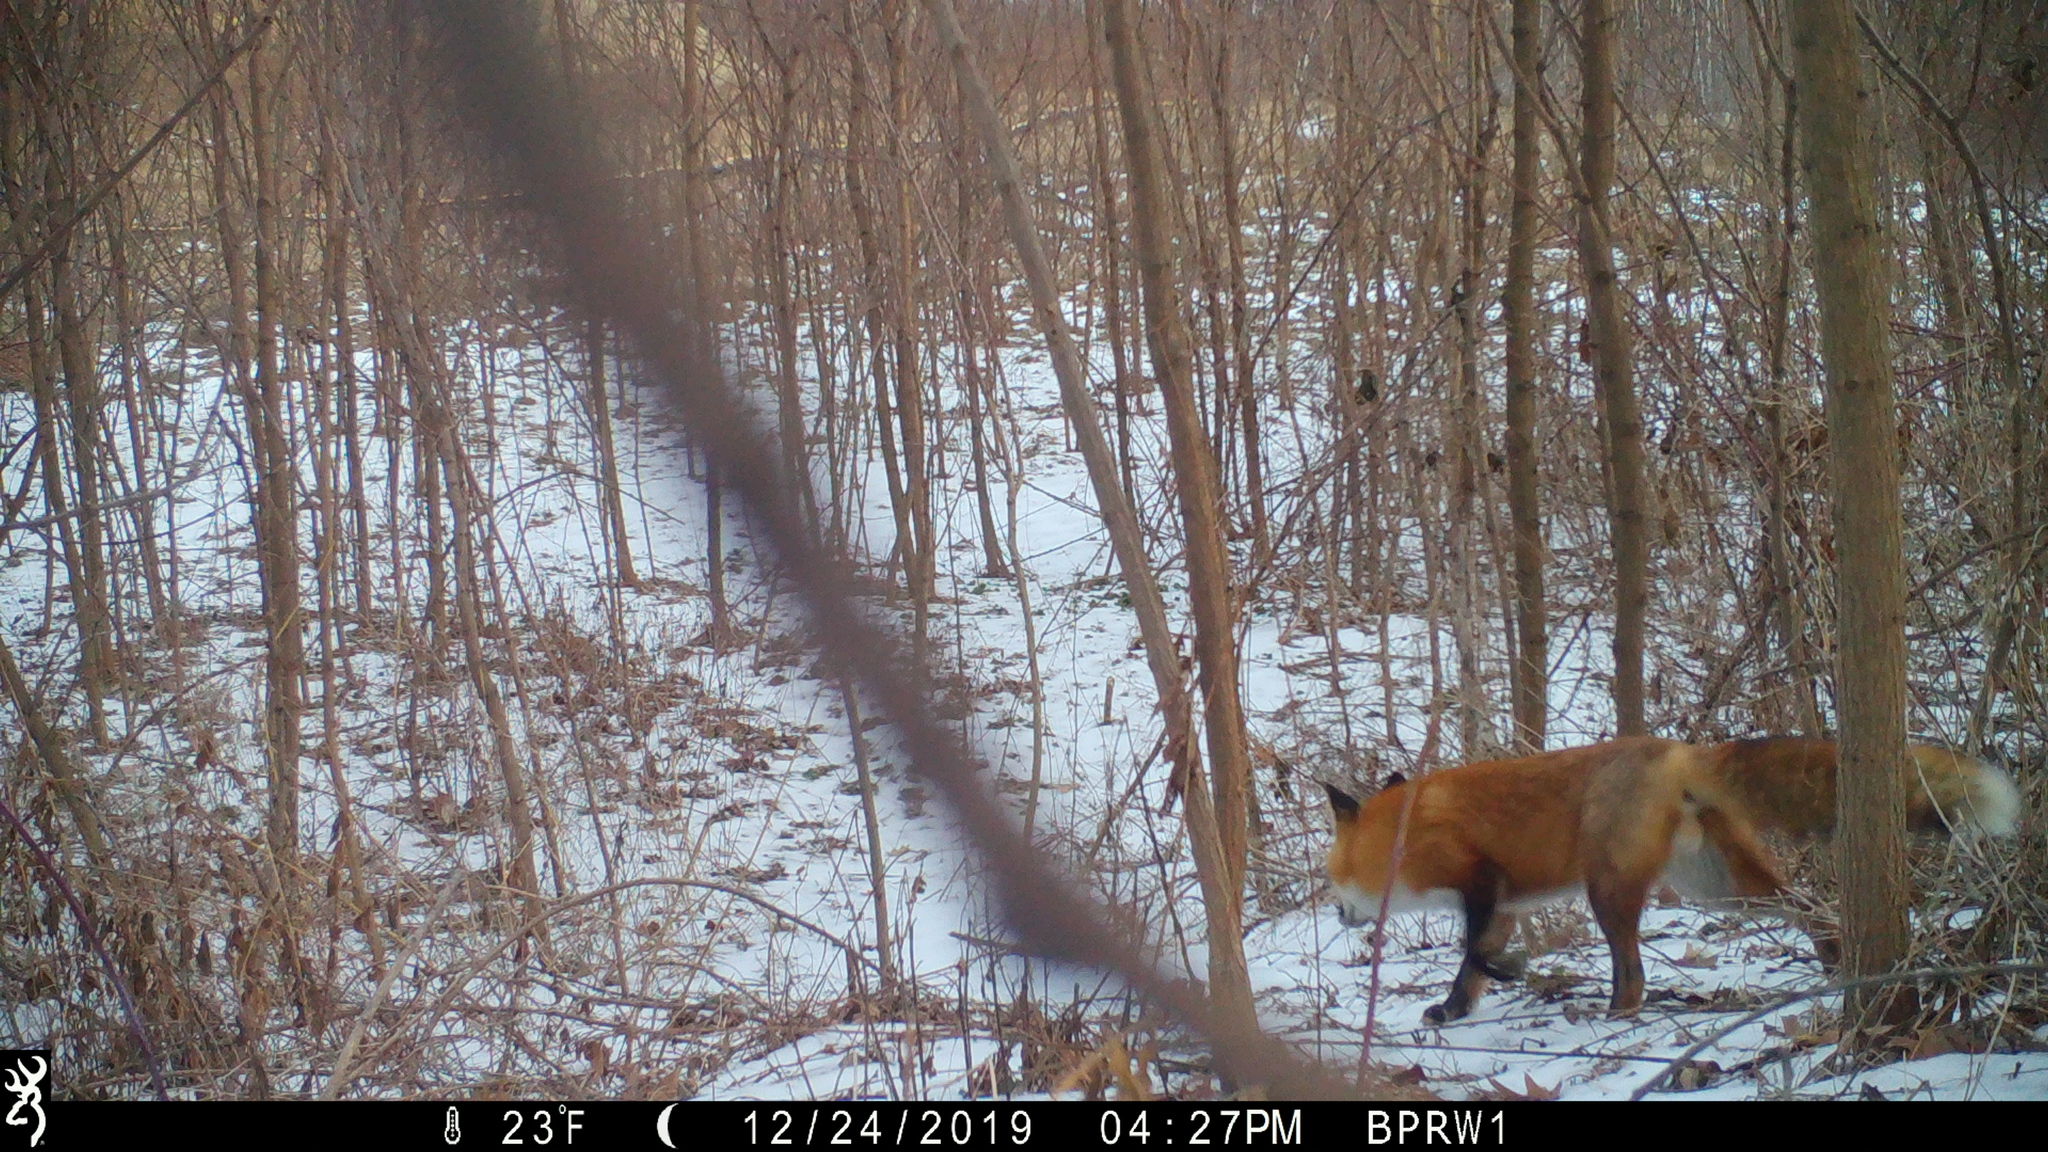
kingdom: Animalia
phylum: Chordata
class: Mammalia
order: Carnivora
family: Canidae
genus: Vulpes
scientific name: Vulpes vulpes
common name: Red fox
